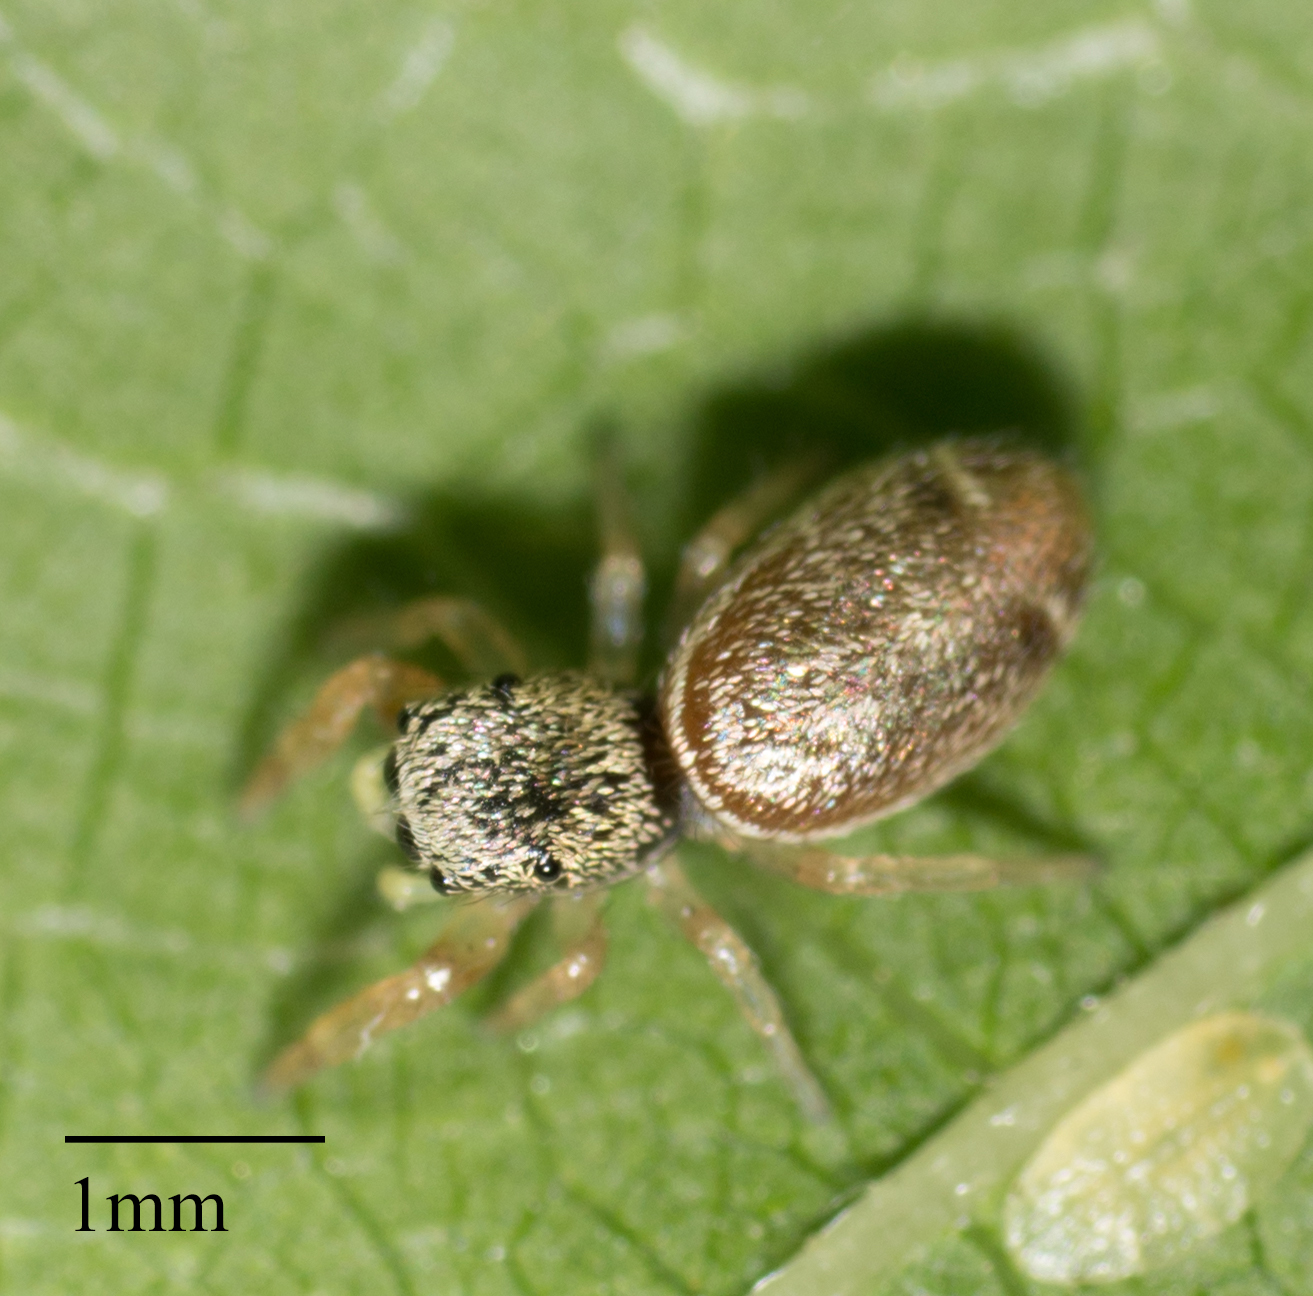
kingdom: Animalia
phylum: Arthropoda
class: Arachnida
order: Araneae
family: Salticidae
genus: Sassacus
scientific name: Sassacus vitis
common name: Jumping spiders
